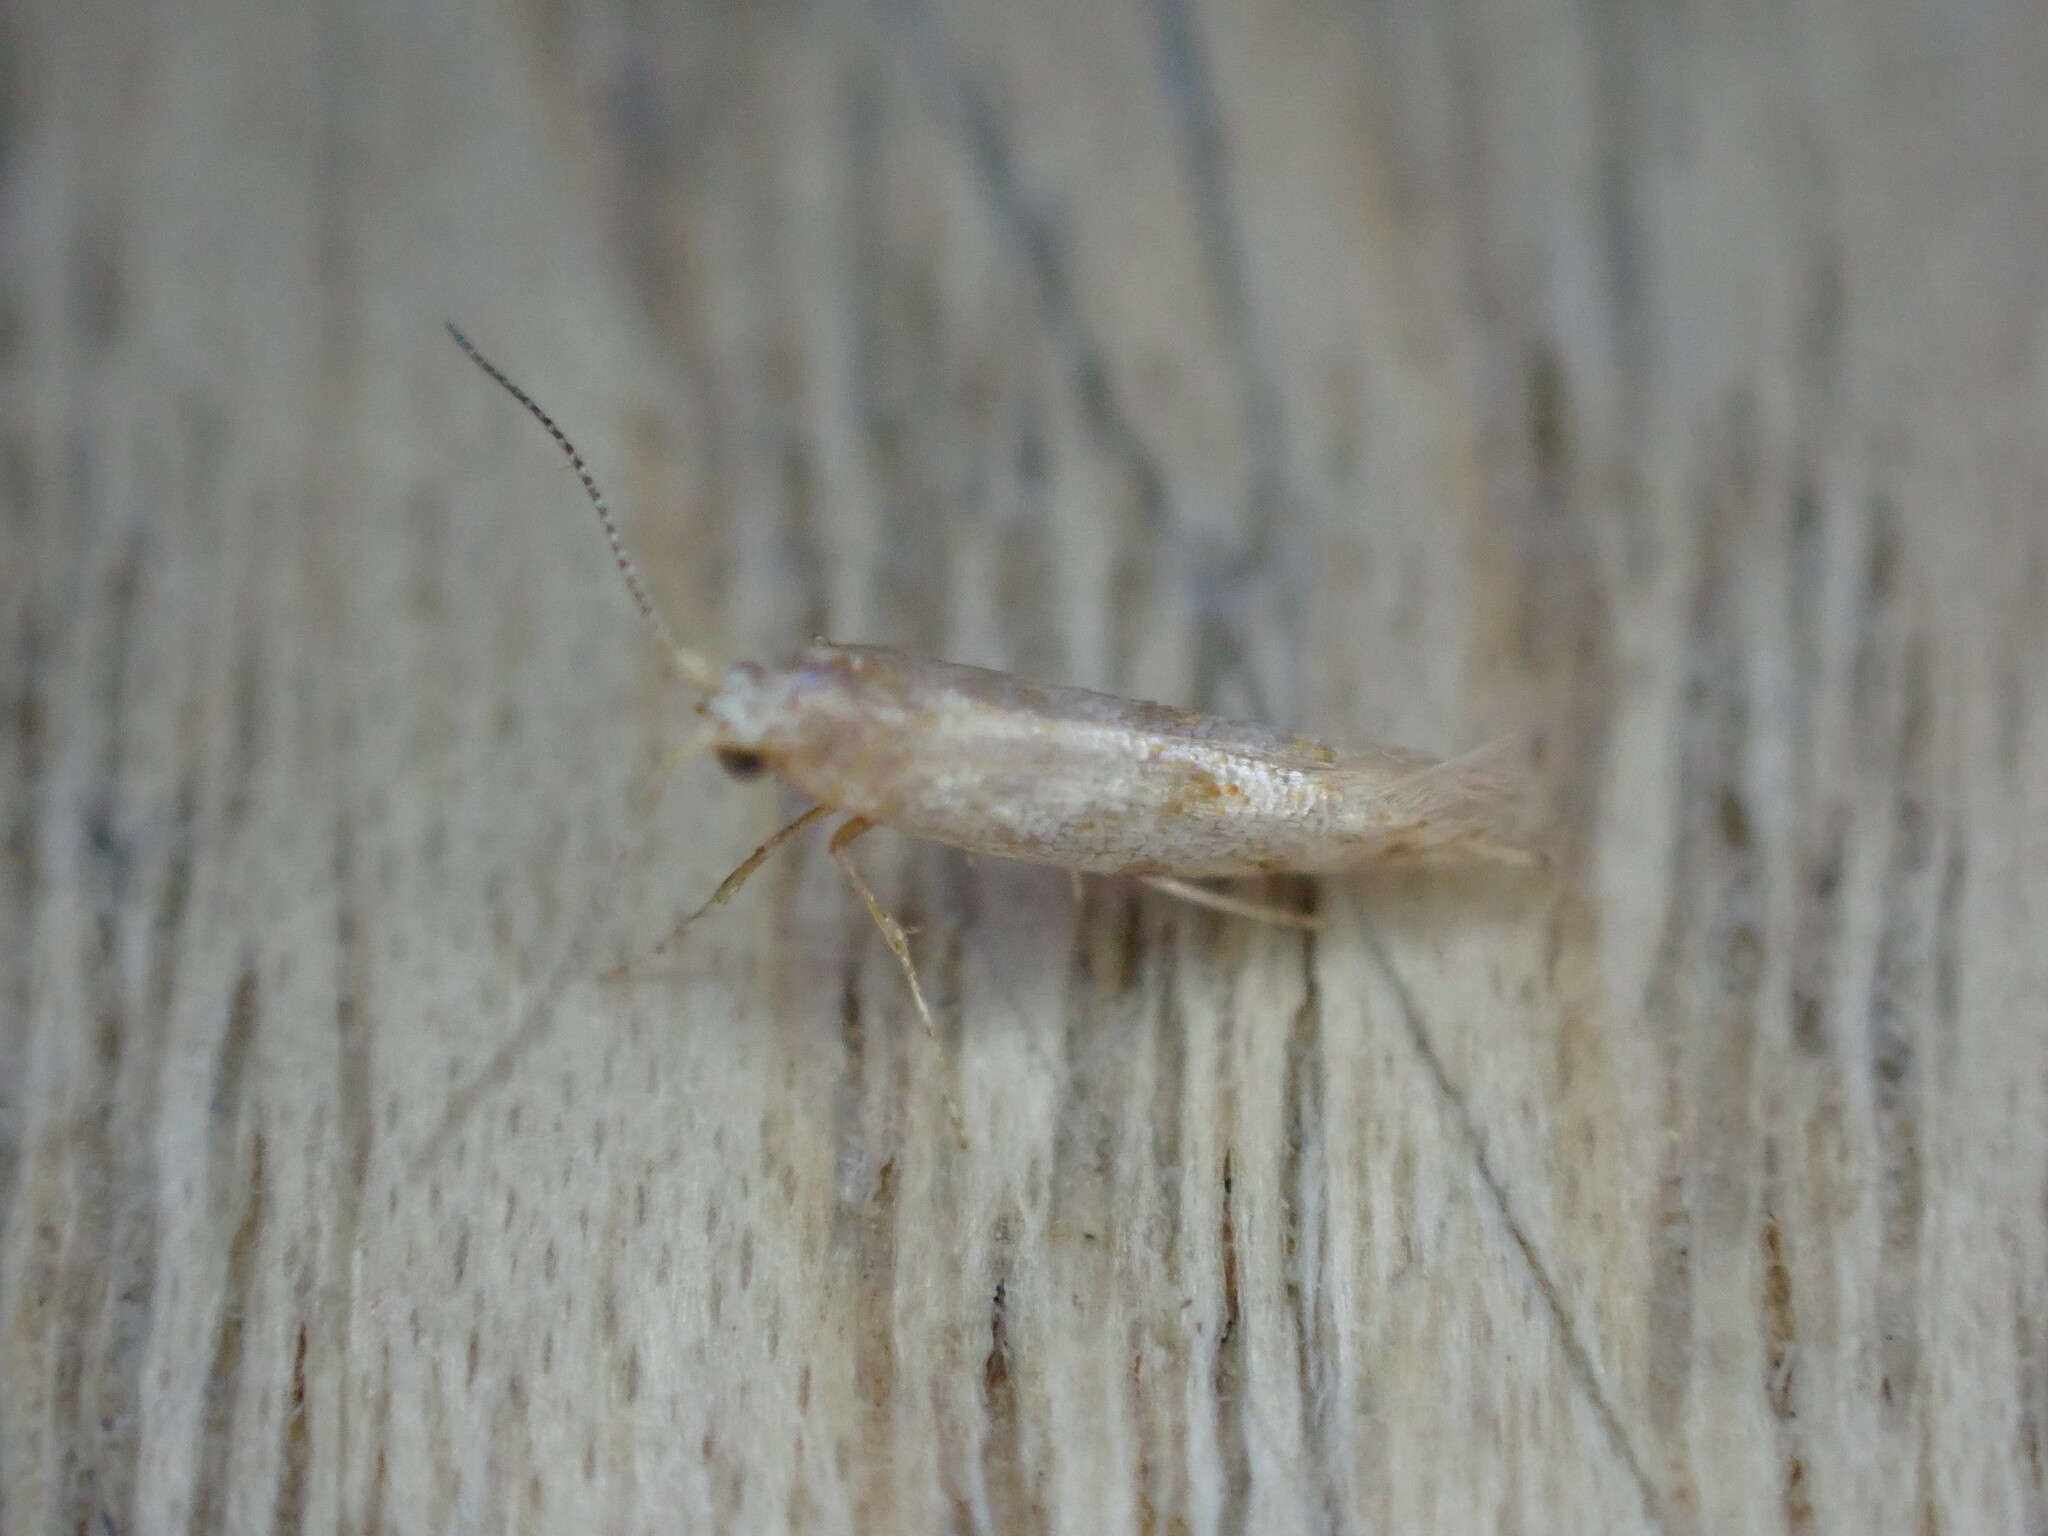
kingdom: Animalia
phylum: Arthropoda
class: Insecta
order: Lepidoptera
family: Argyresthiidae
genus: Argyresthia
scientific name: Argyresthia cupressella
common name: Cypress tip moth
